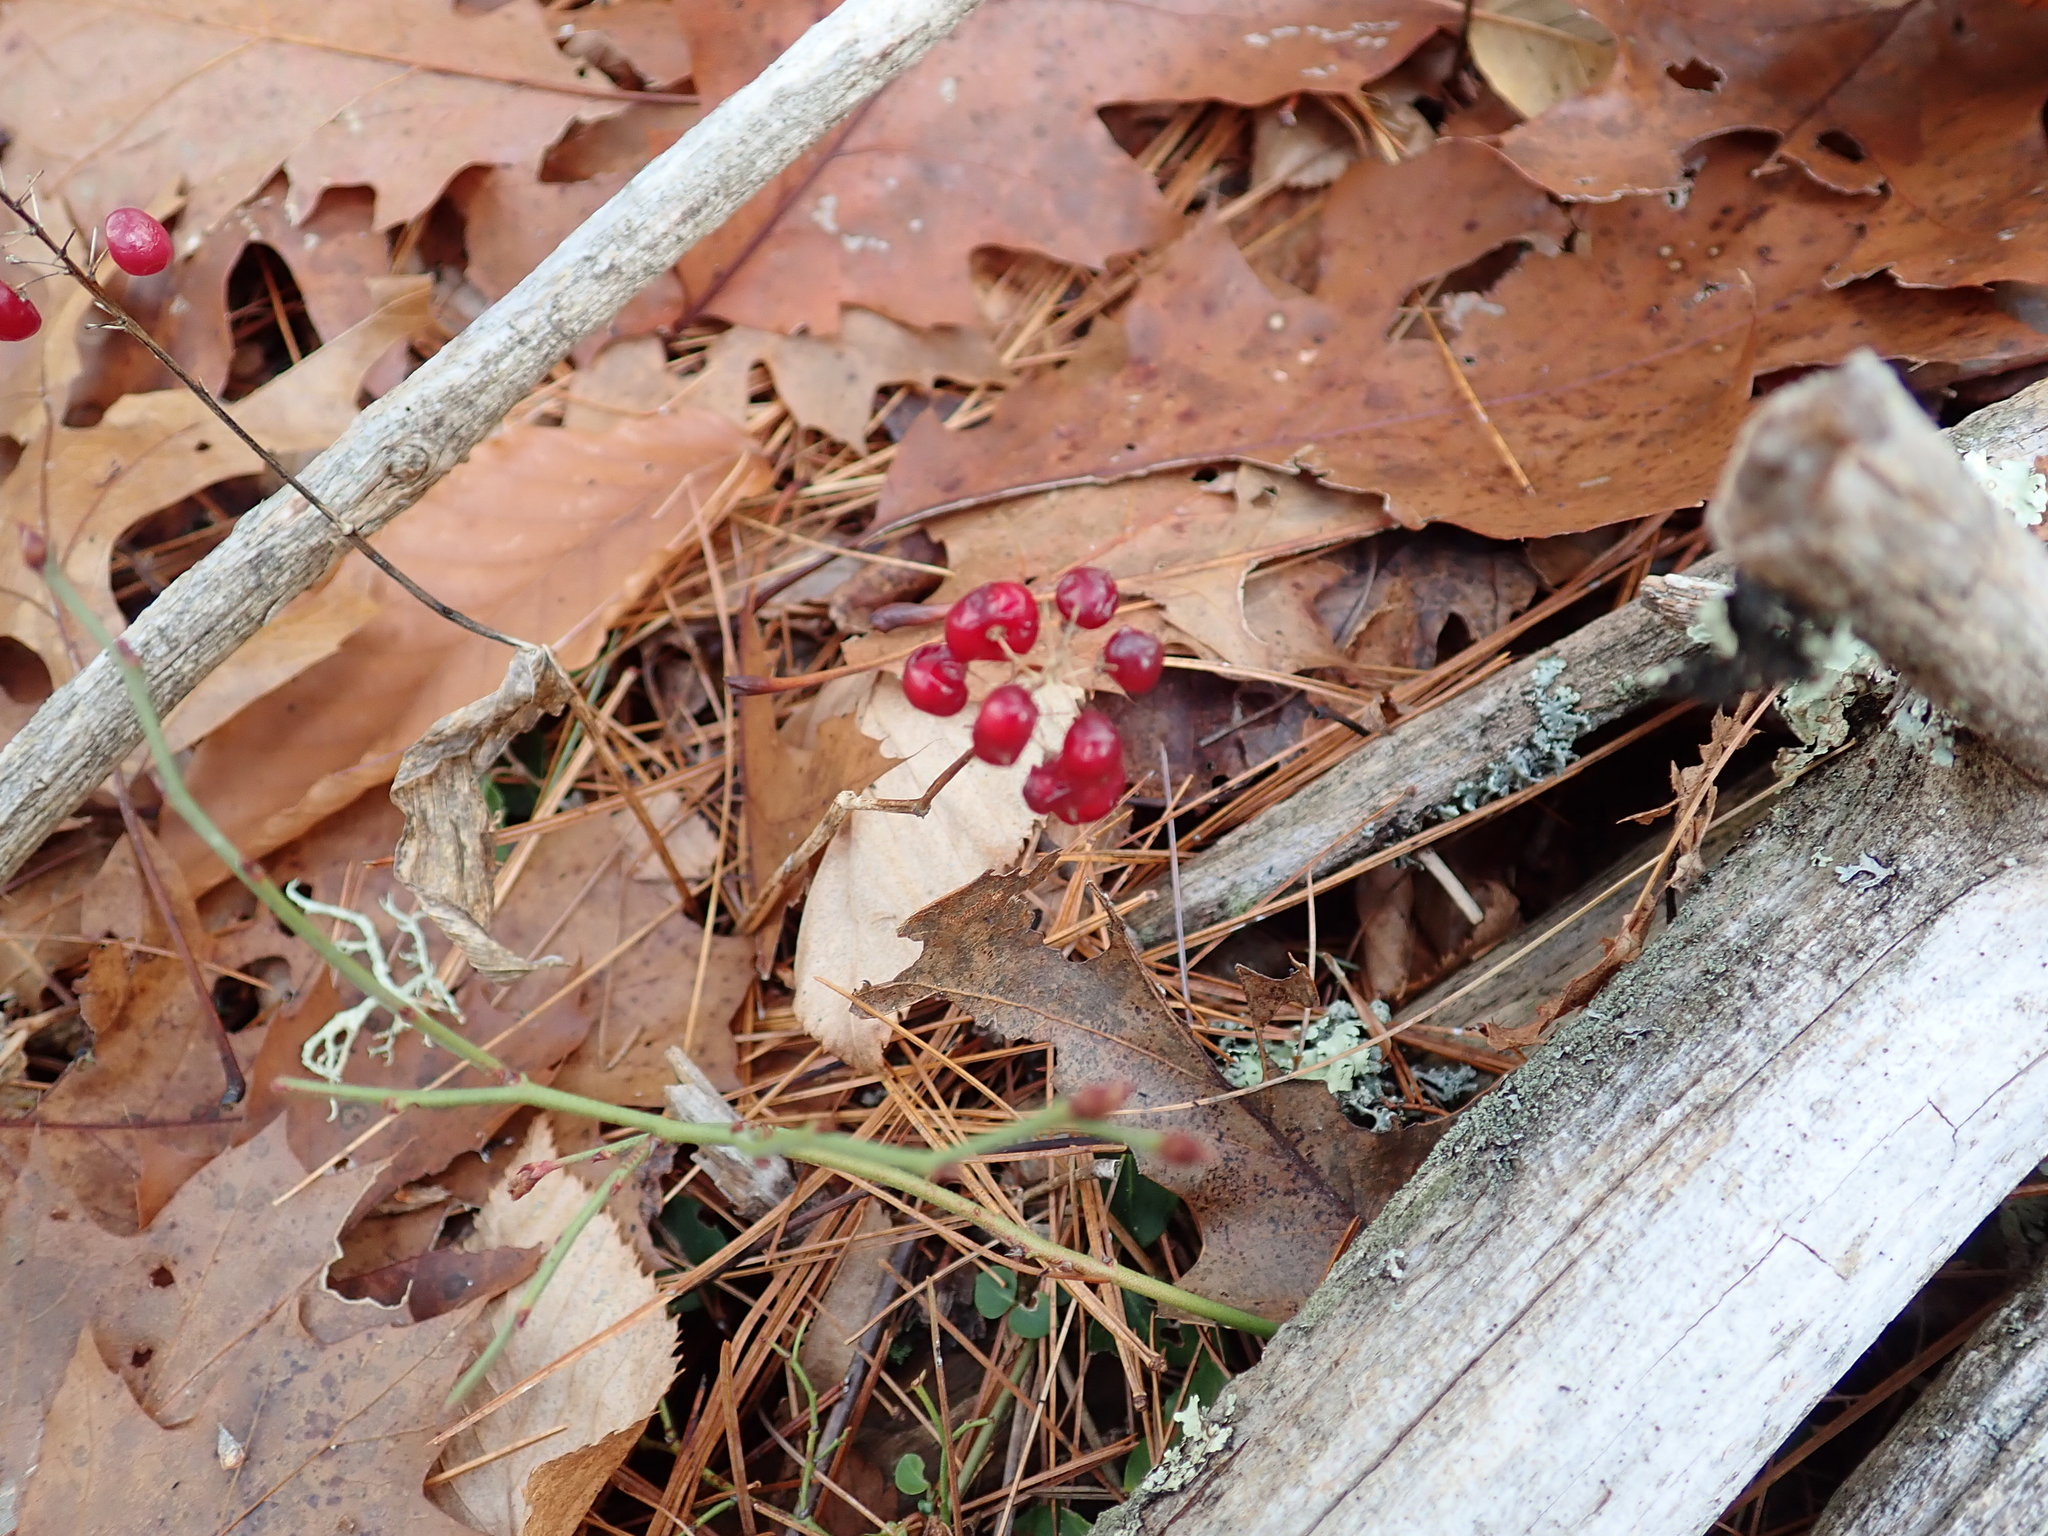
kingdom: Plantae
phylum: Tracheophyta
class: Liliopsida
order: Asparagales
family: Asparagaceae
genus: Maianthemum
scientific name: Maianthemum canadense
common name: False lily-of-the-valley
